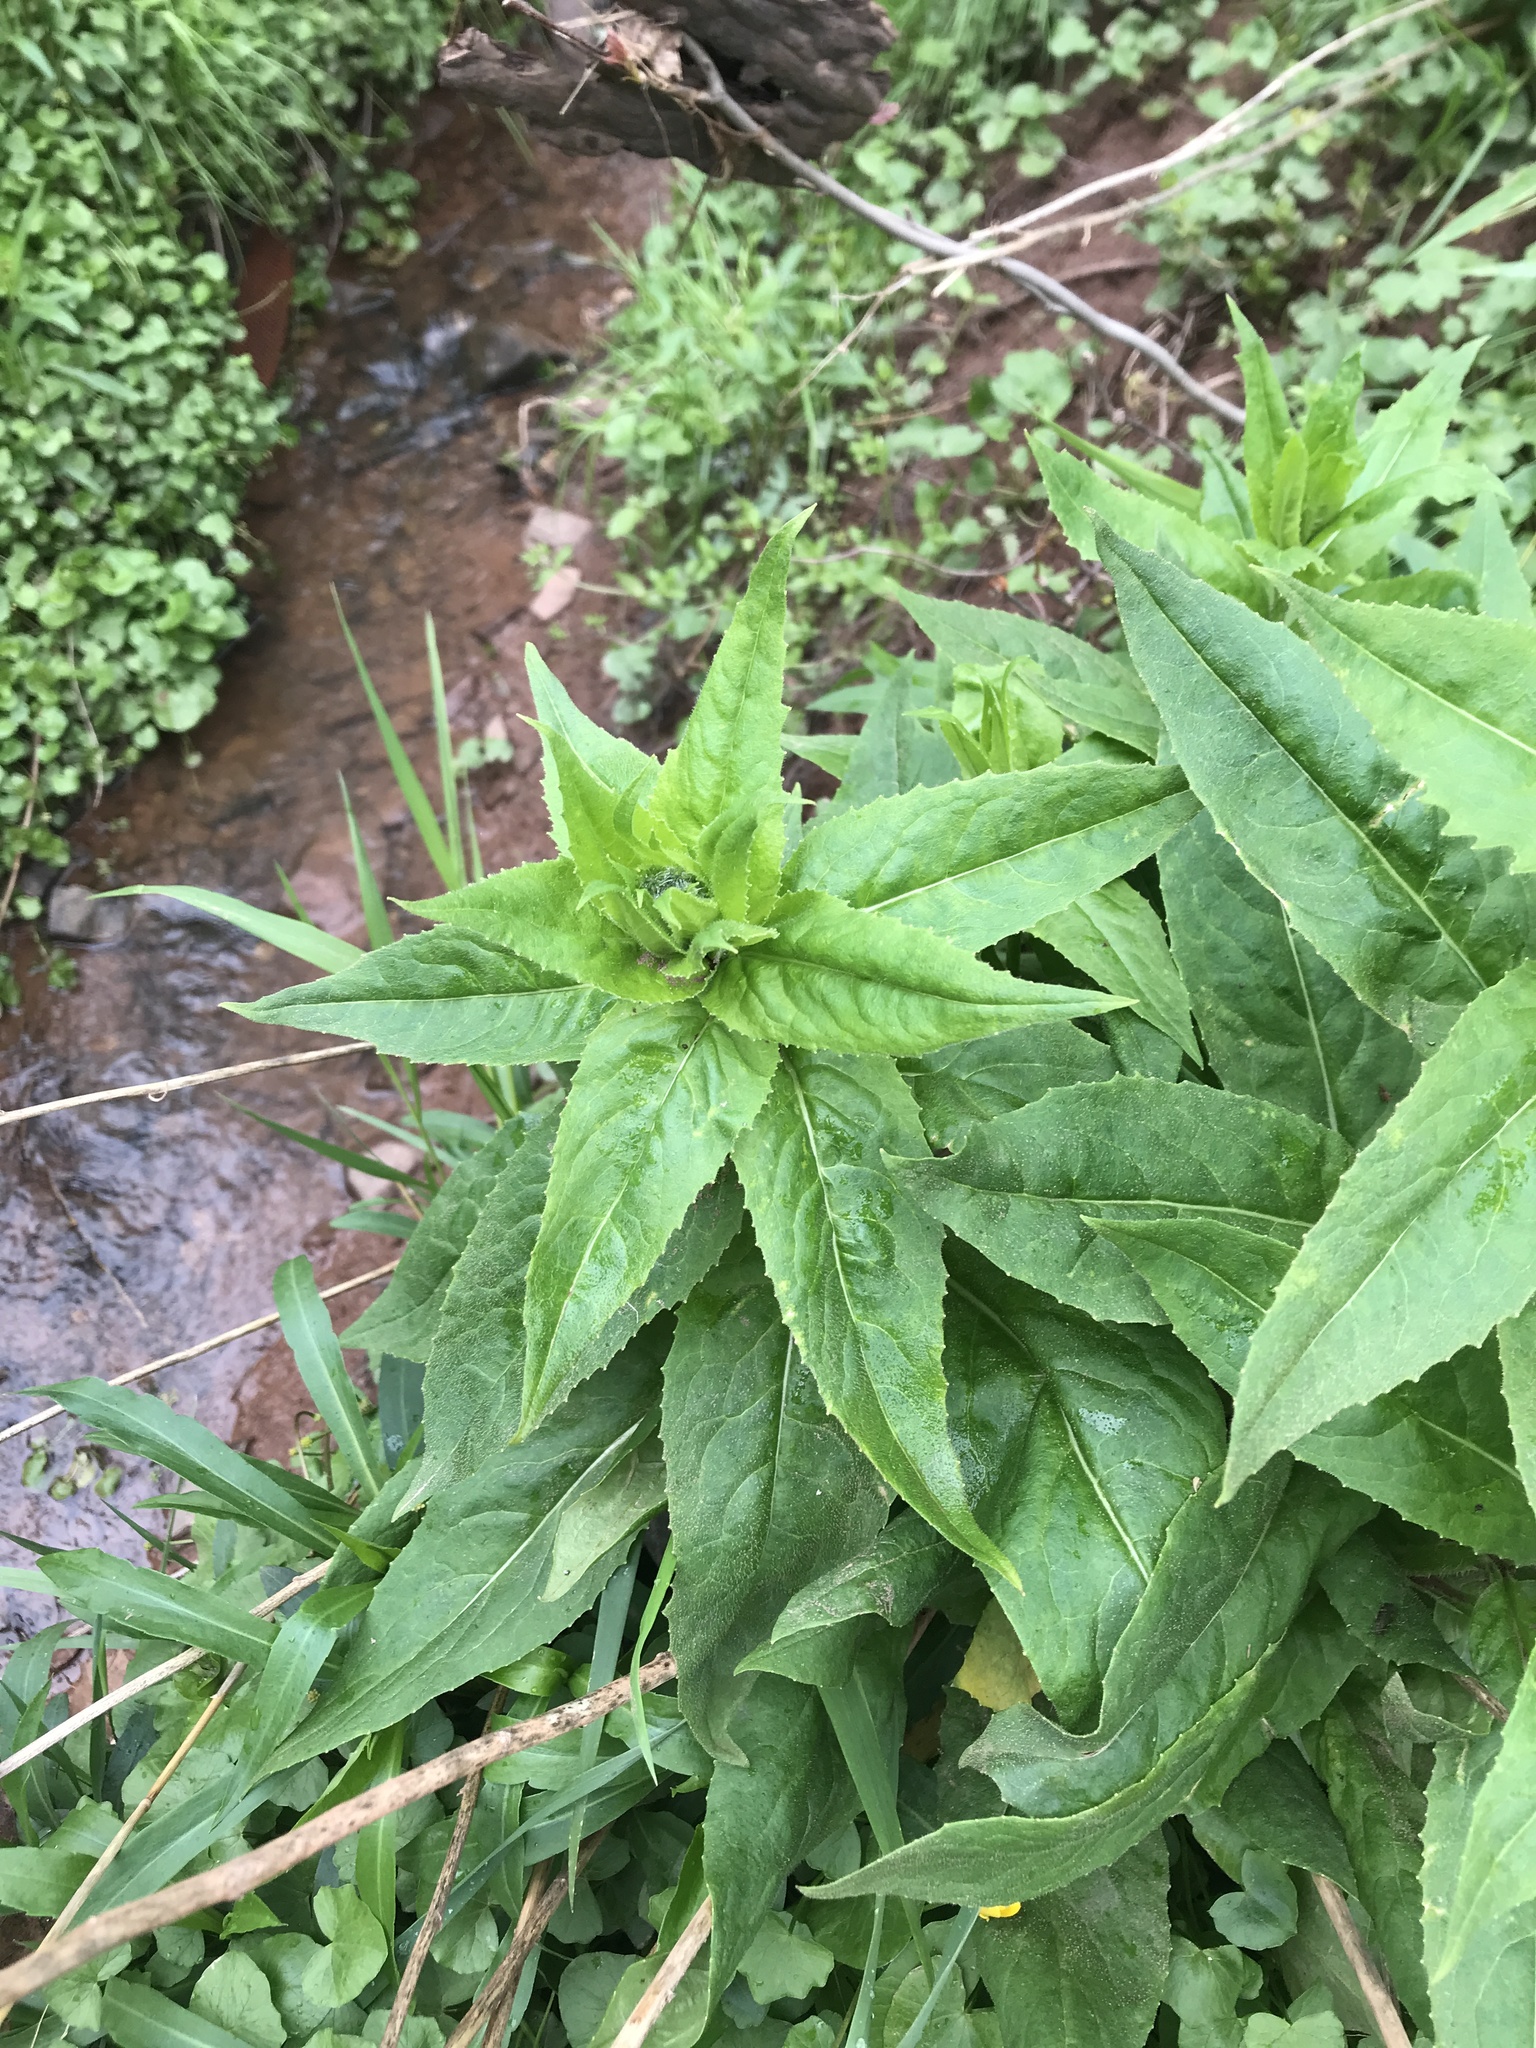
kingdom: Plantae
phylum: Tracheophyta
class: Magnoliopsida
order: Brassicales
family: Brassicaceae
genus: Hesperis
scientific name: Hesperis matronalis
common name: Dame's-violet
